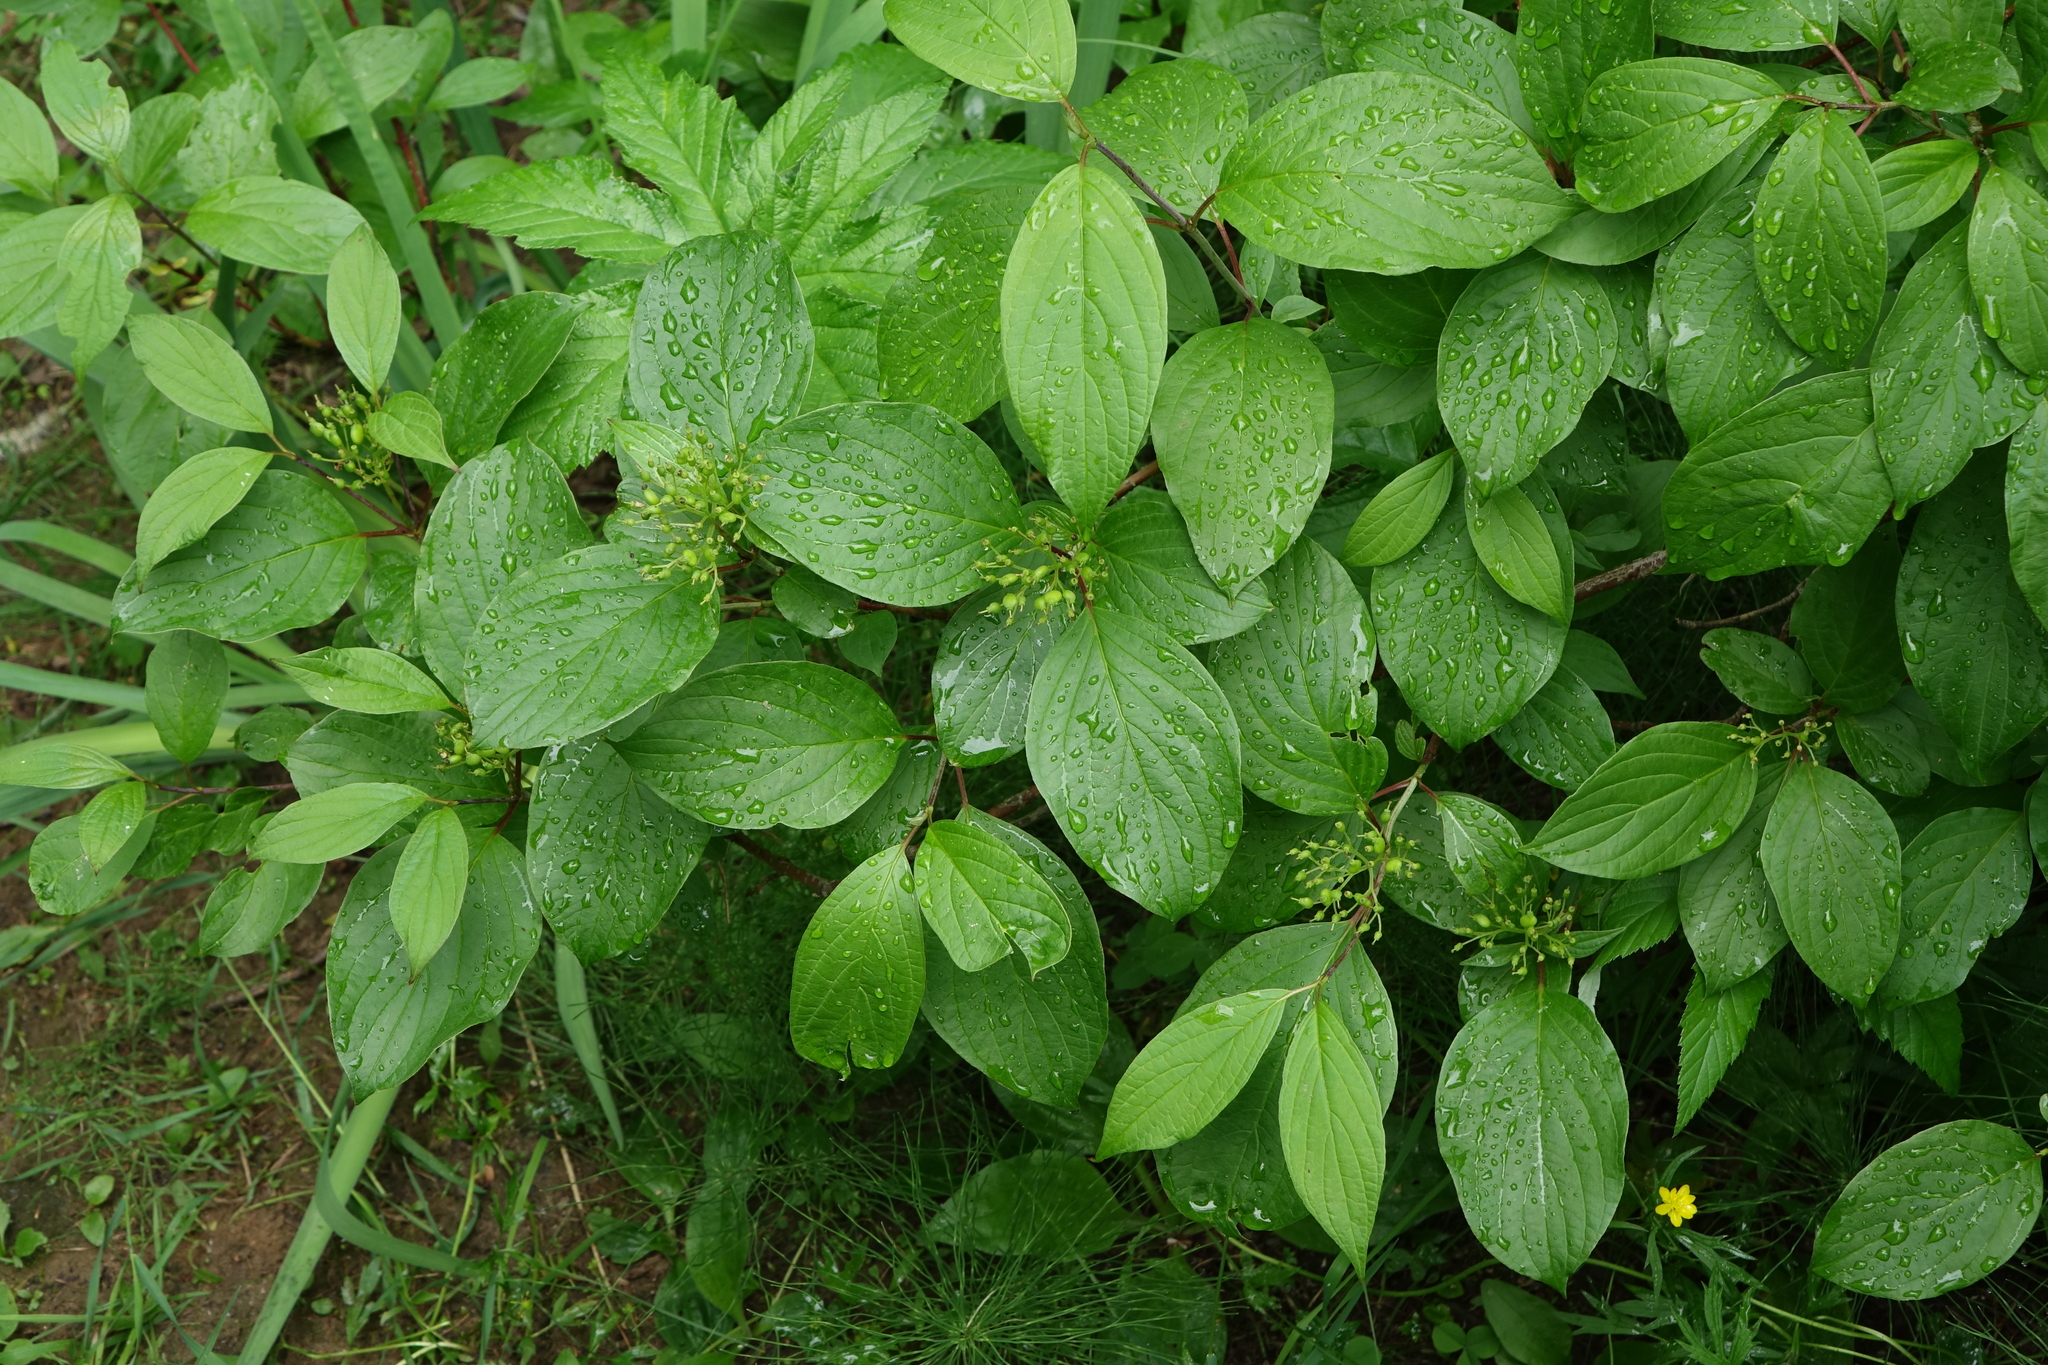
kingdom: Plantae
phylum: Tracheophyta
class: Magnoliopsida
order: Cornales
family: Cornaceae
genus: Cornus
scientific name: Cornus alba
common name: White dogwood
